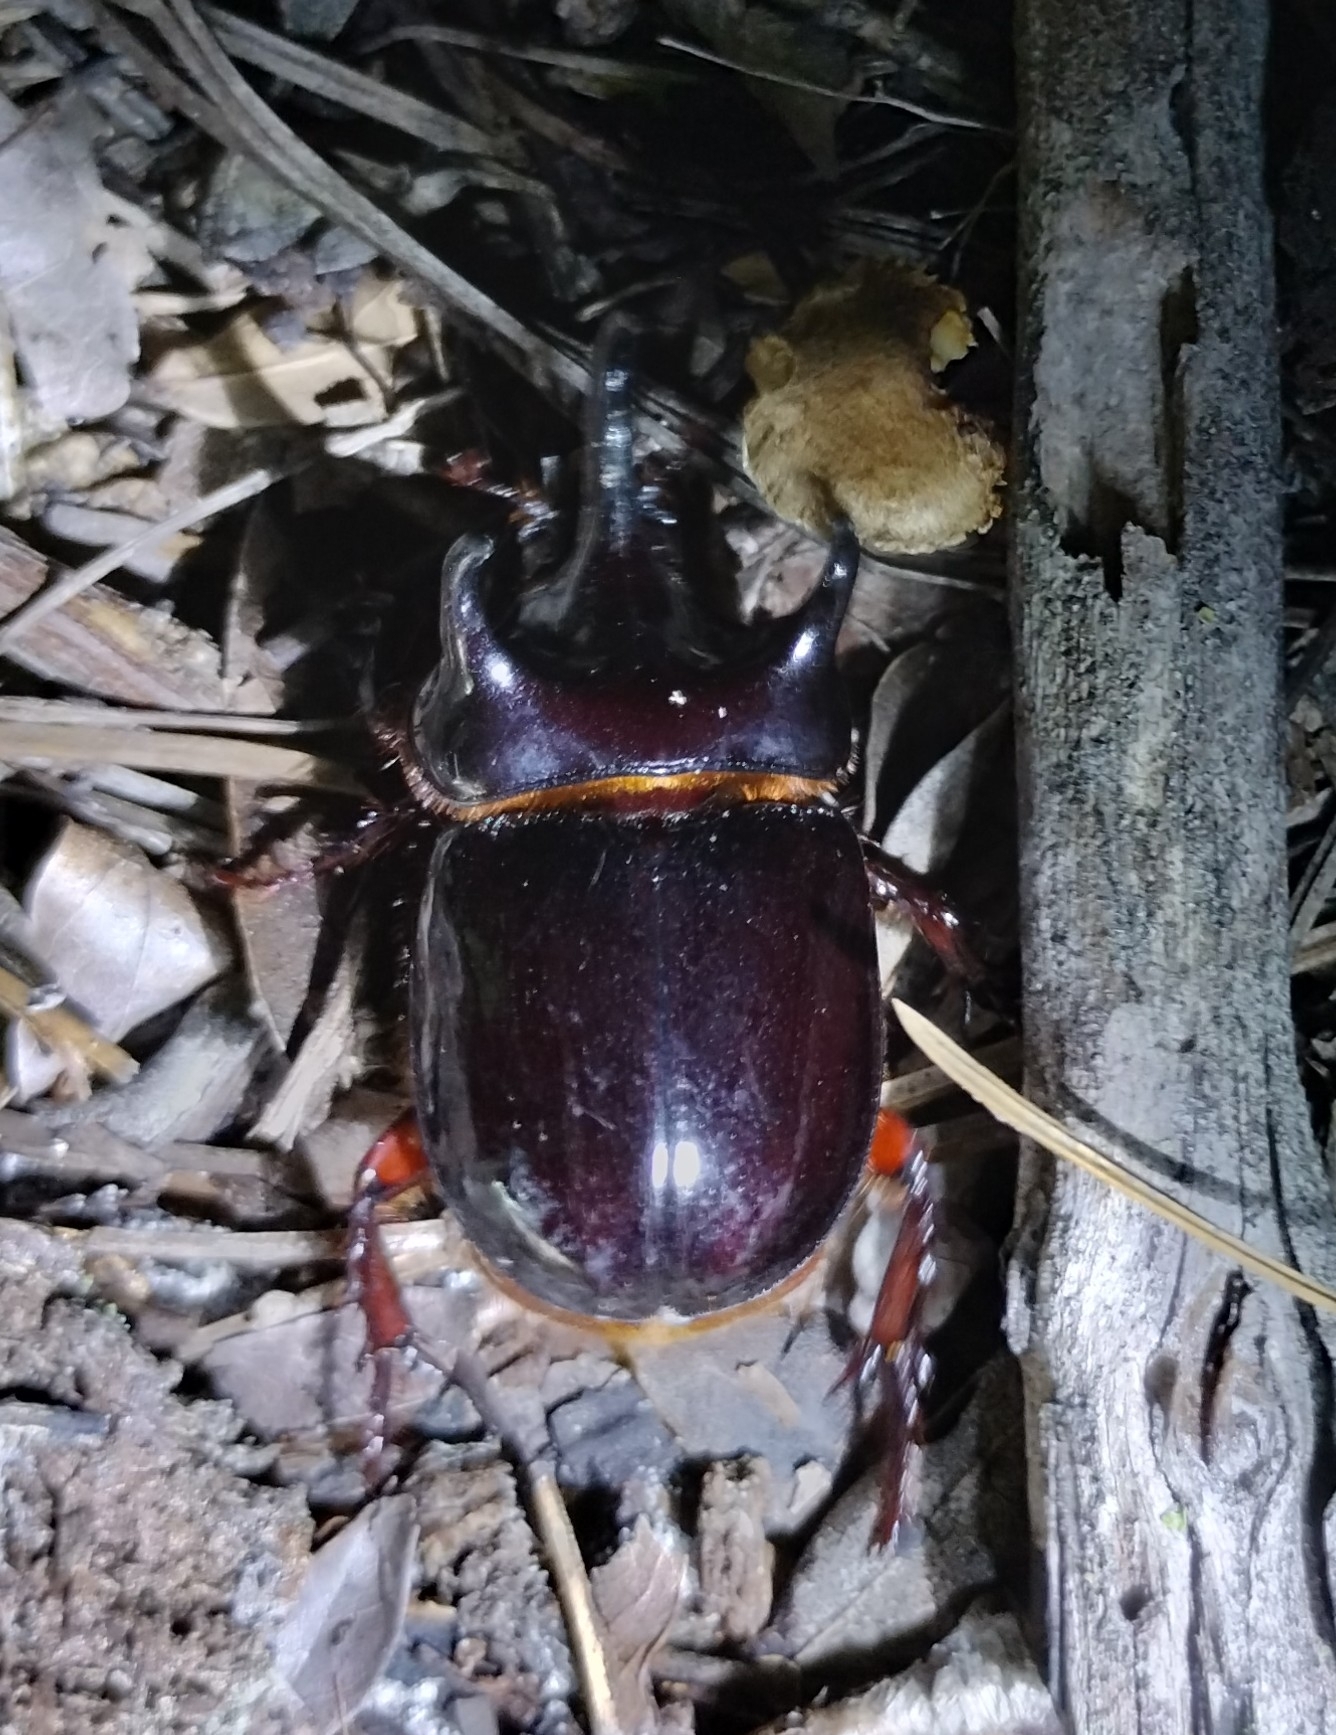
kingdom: Animalia
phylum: Arthropoda
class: Insecta
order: Coleoptera
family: Scarabaeidae
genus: Strategus
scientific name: Strategus antaeus
